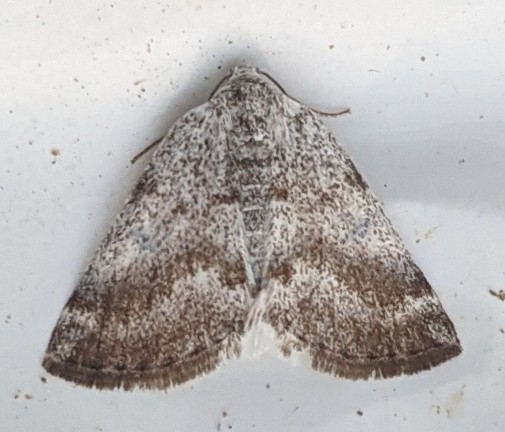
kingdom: Animalia
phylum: Arthropoda
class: Insecta
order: Lepidoptera
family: Geometridae
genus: Lomographa
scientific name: Lomographa semiclarata
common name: Bluish spring moth
